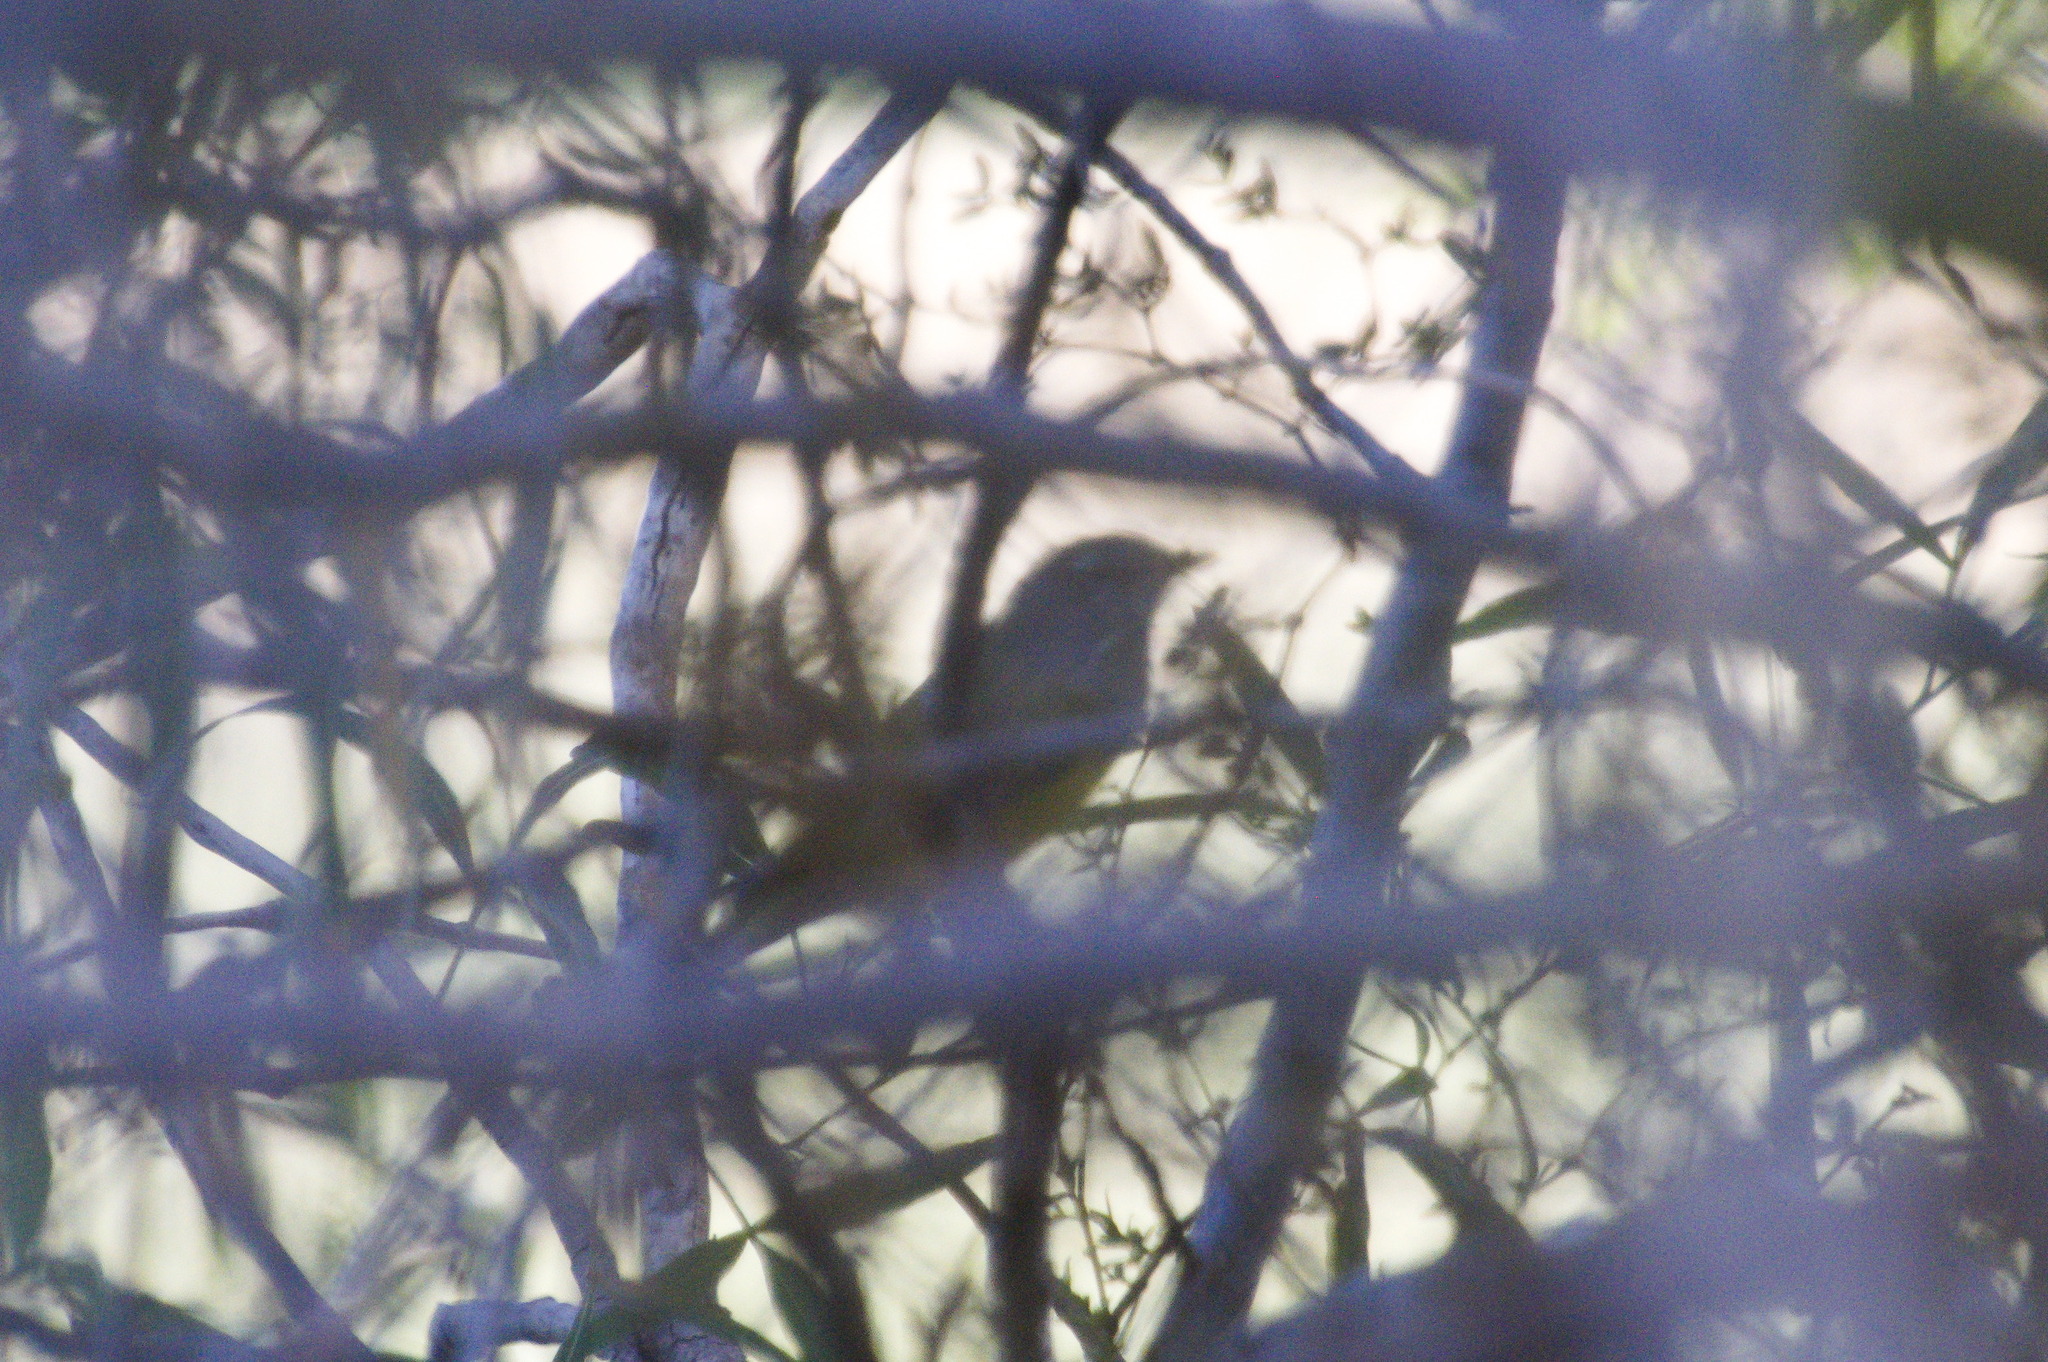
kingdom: Animalia
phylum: Chordata
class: Aves
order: Passeriformes
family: Parulidae
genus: Geothlypis
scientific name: Geothlypis tolmiei
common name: Macgillivray's warbler
